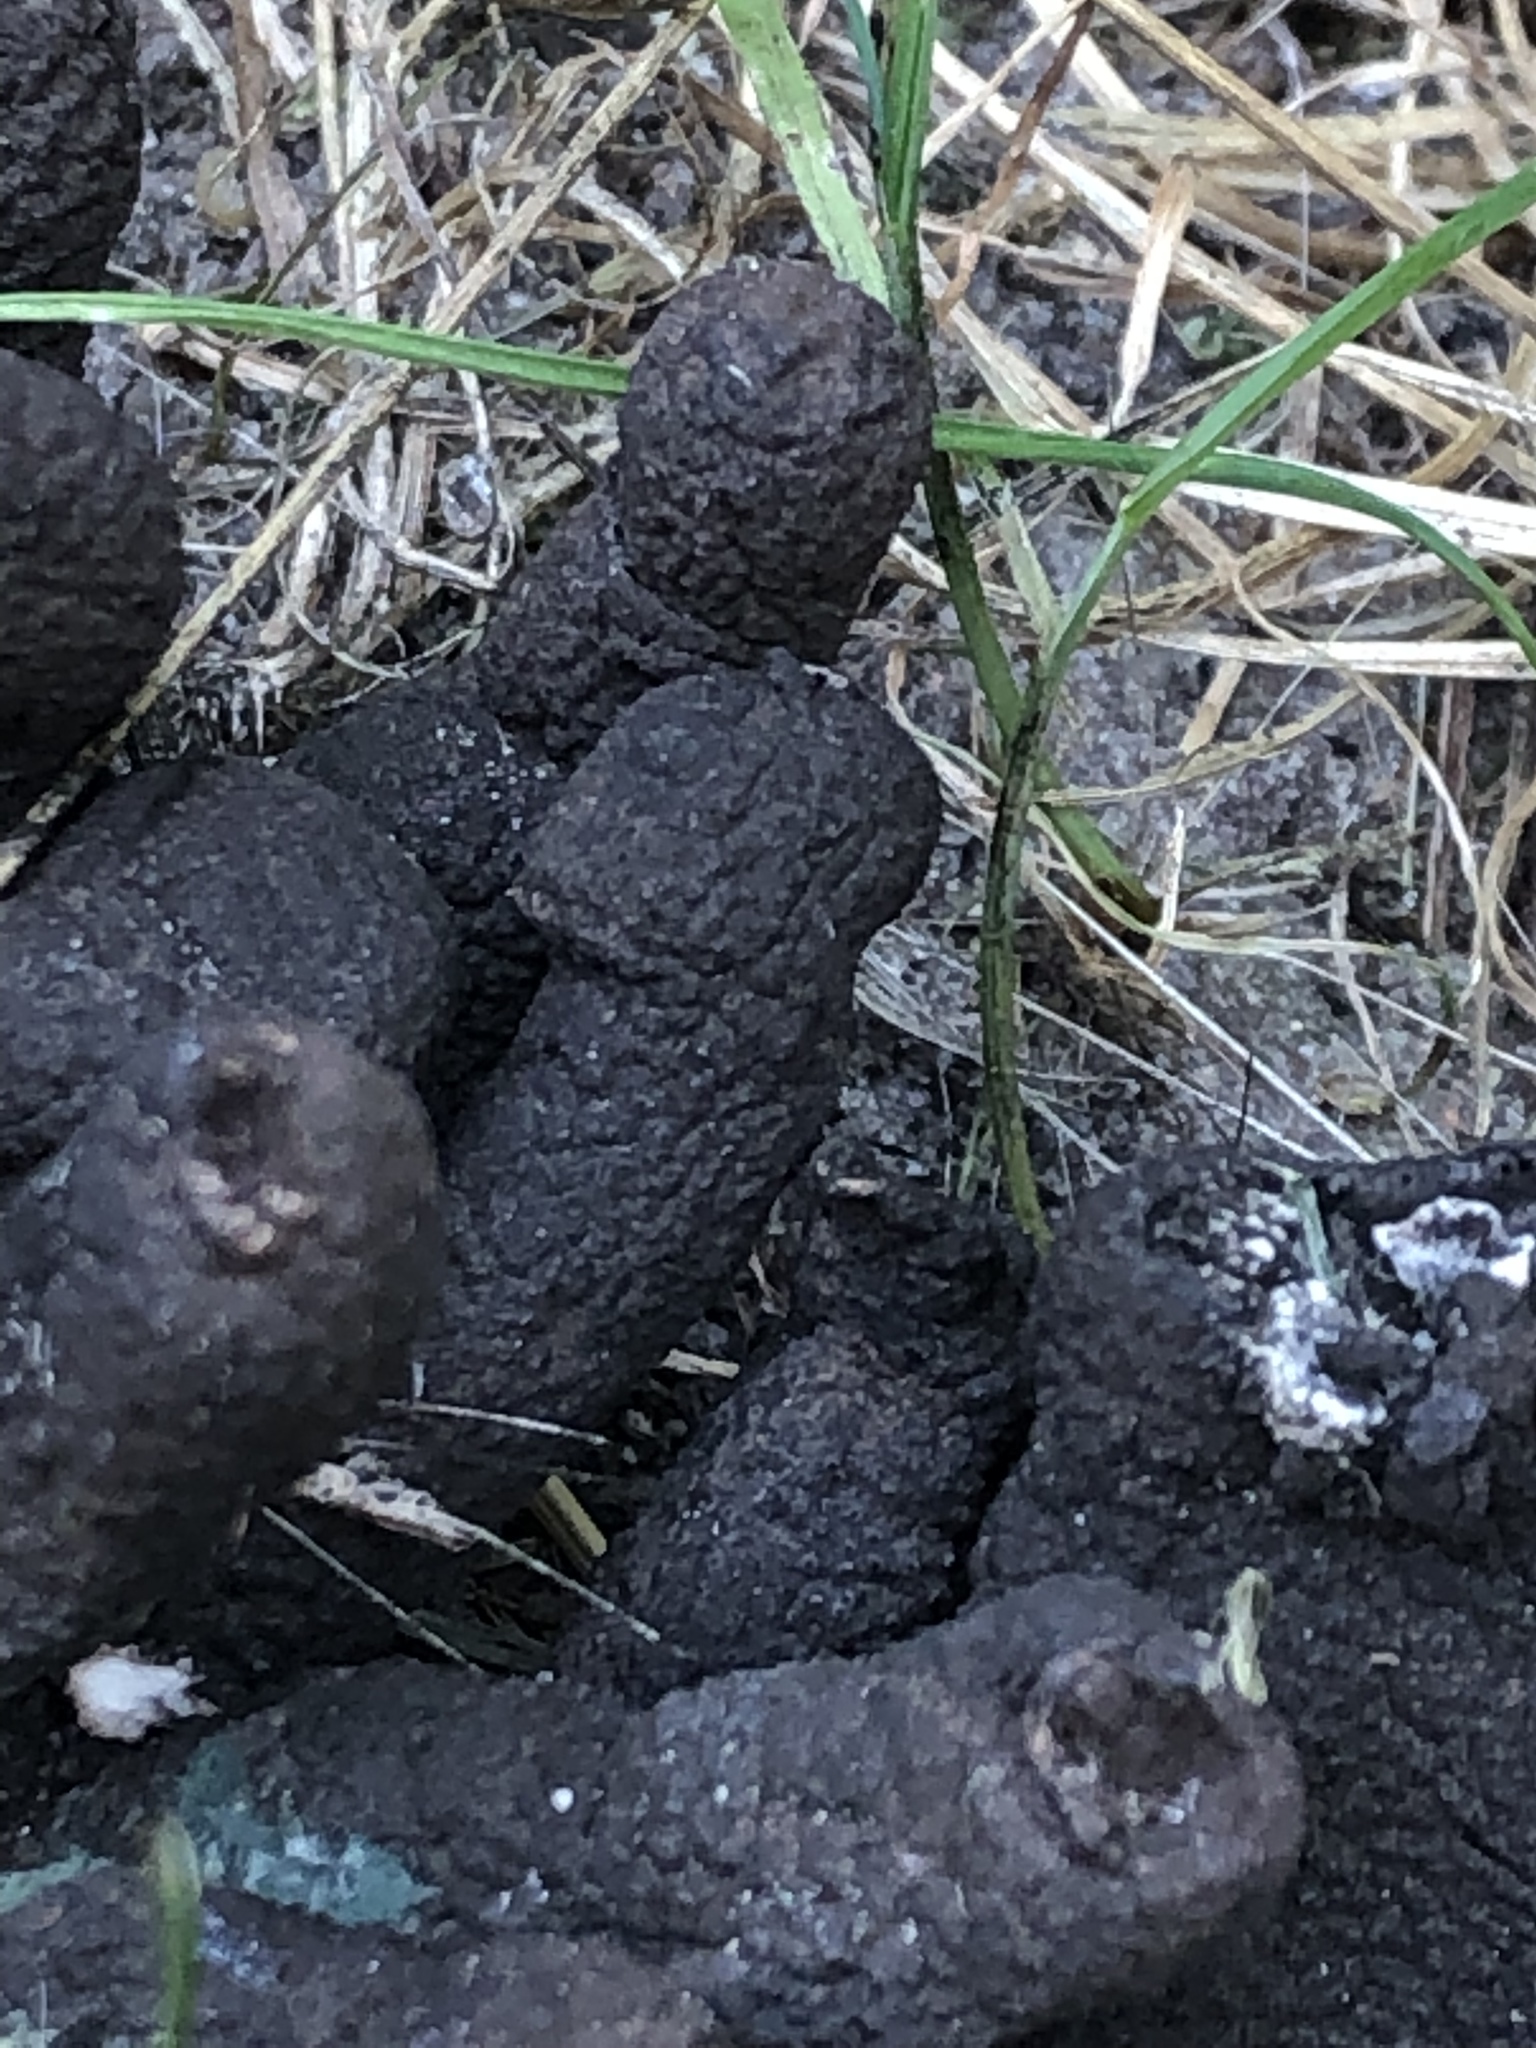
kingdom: Fungi
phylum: Ascomycota
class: Sordariomycetes
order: Xylariales
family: Xylariaceae
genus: Xylaria
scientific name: Xylaria polymorpha
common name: Dead man's fingers
